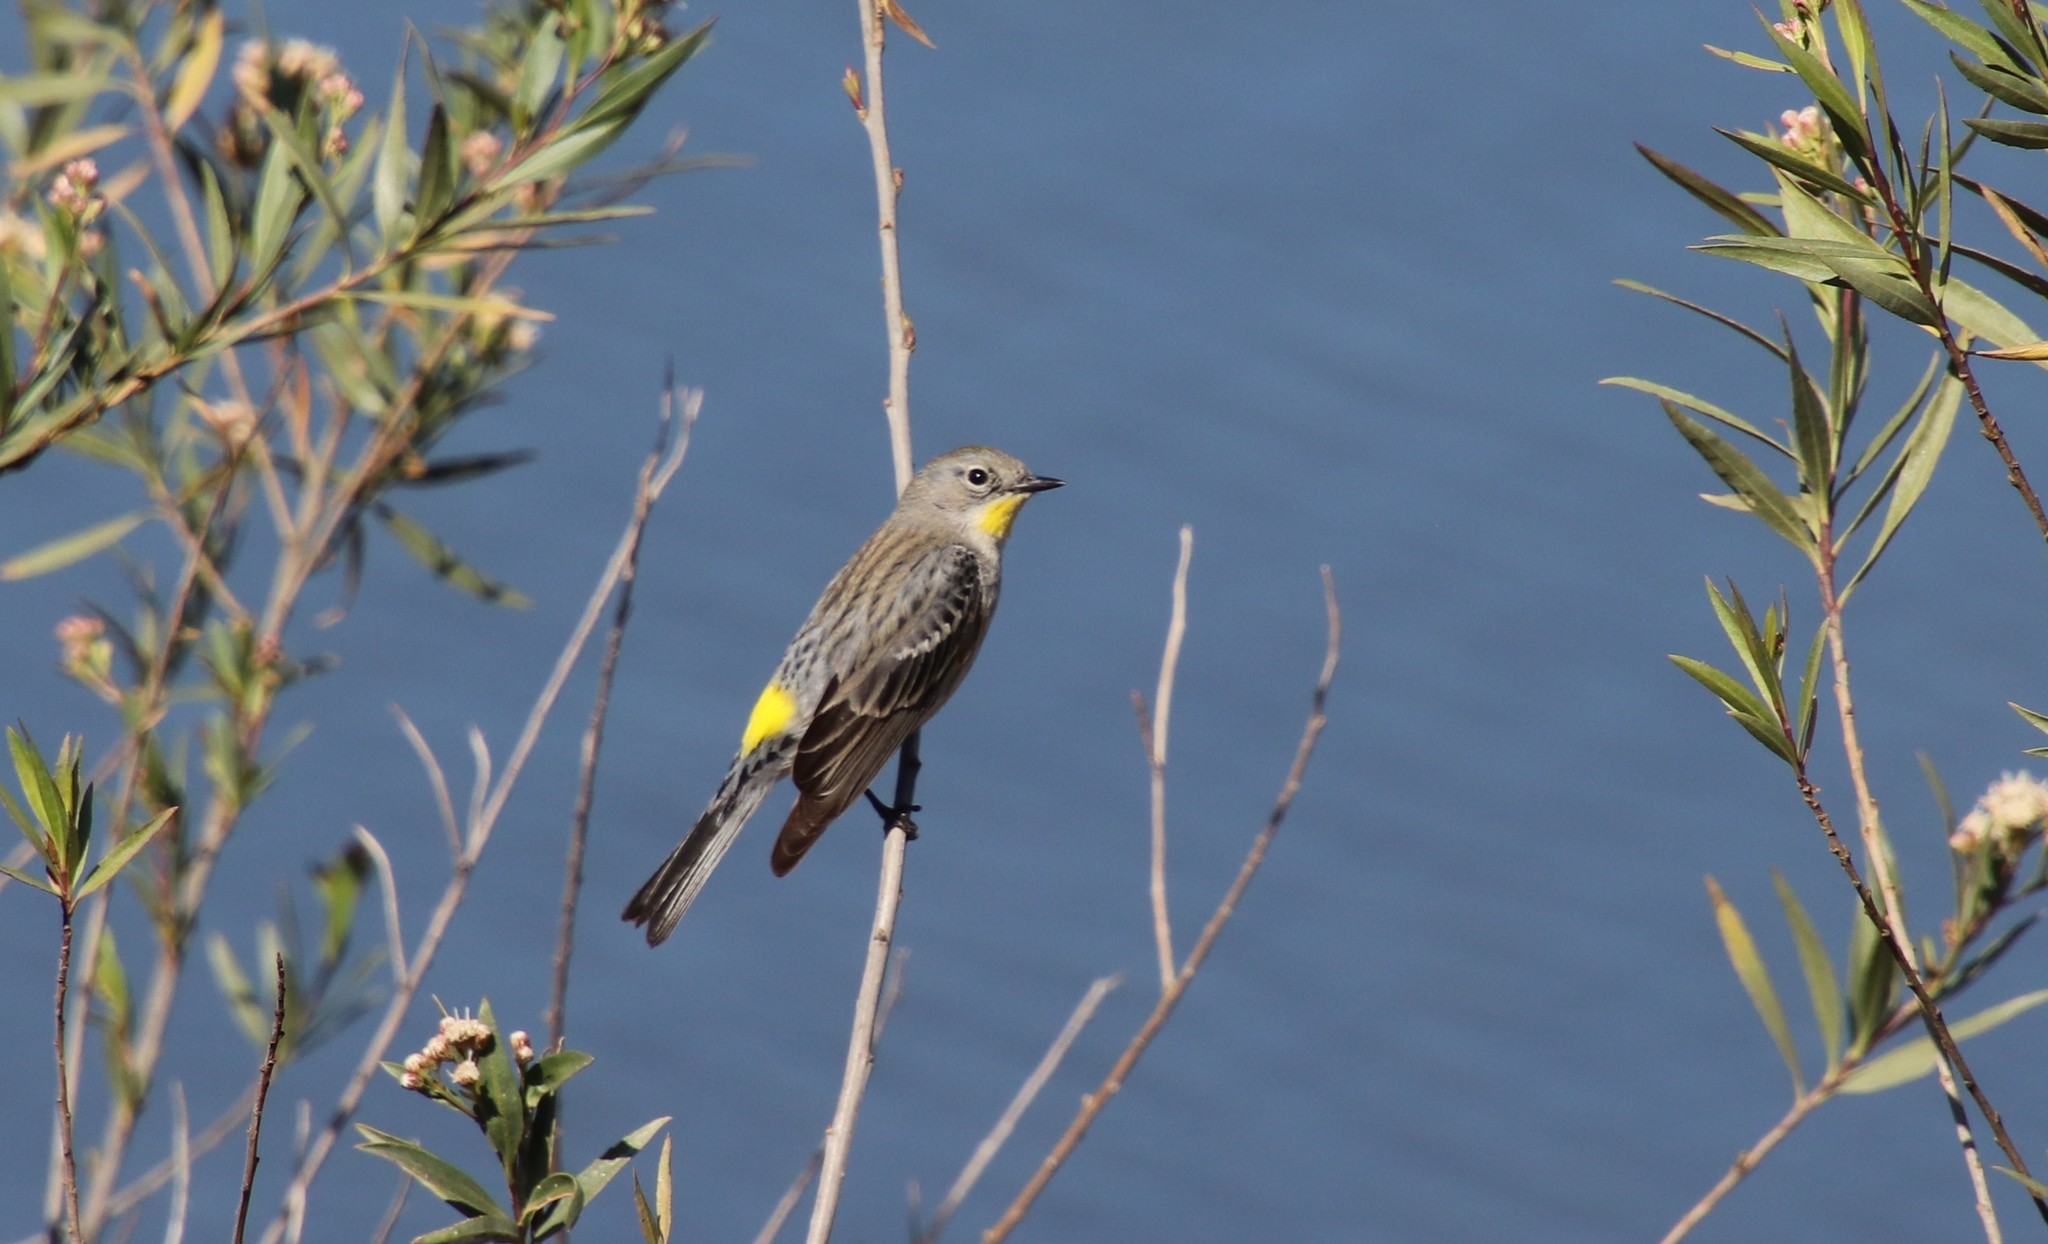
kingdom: Animalia
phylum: Chordata
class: Aves
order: Passeriformes
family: Parulidae
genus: Setophaga
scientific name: Setophaga auduboni
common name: Audubon's warbler
